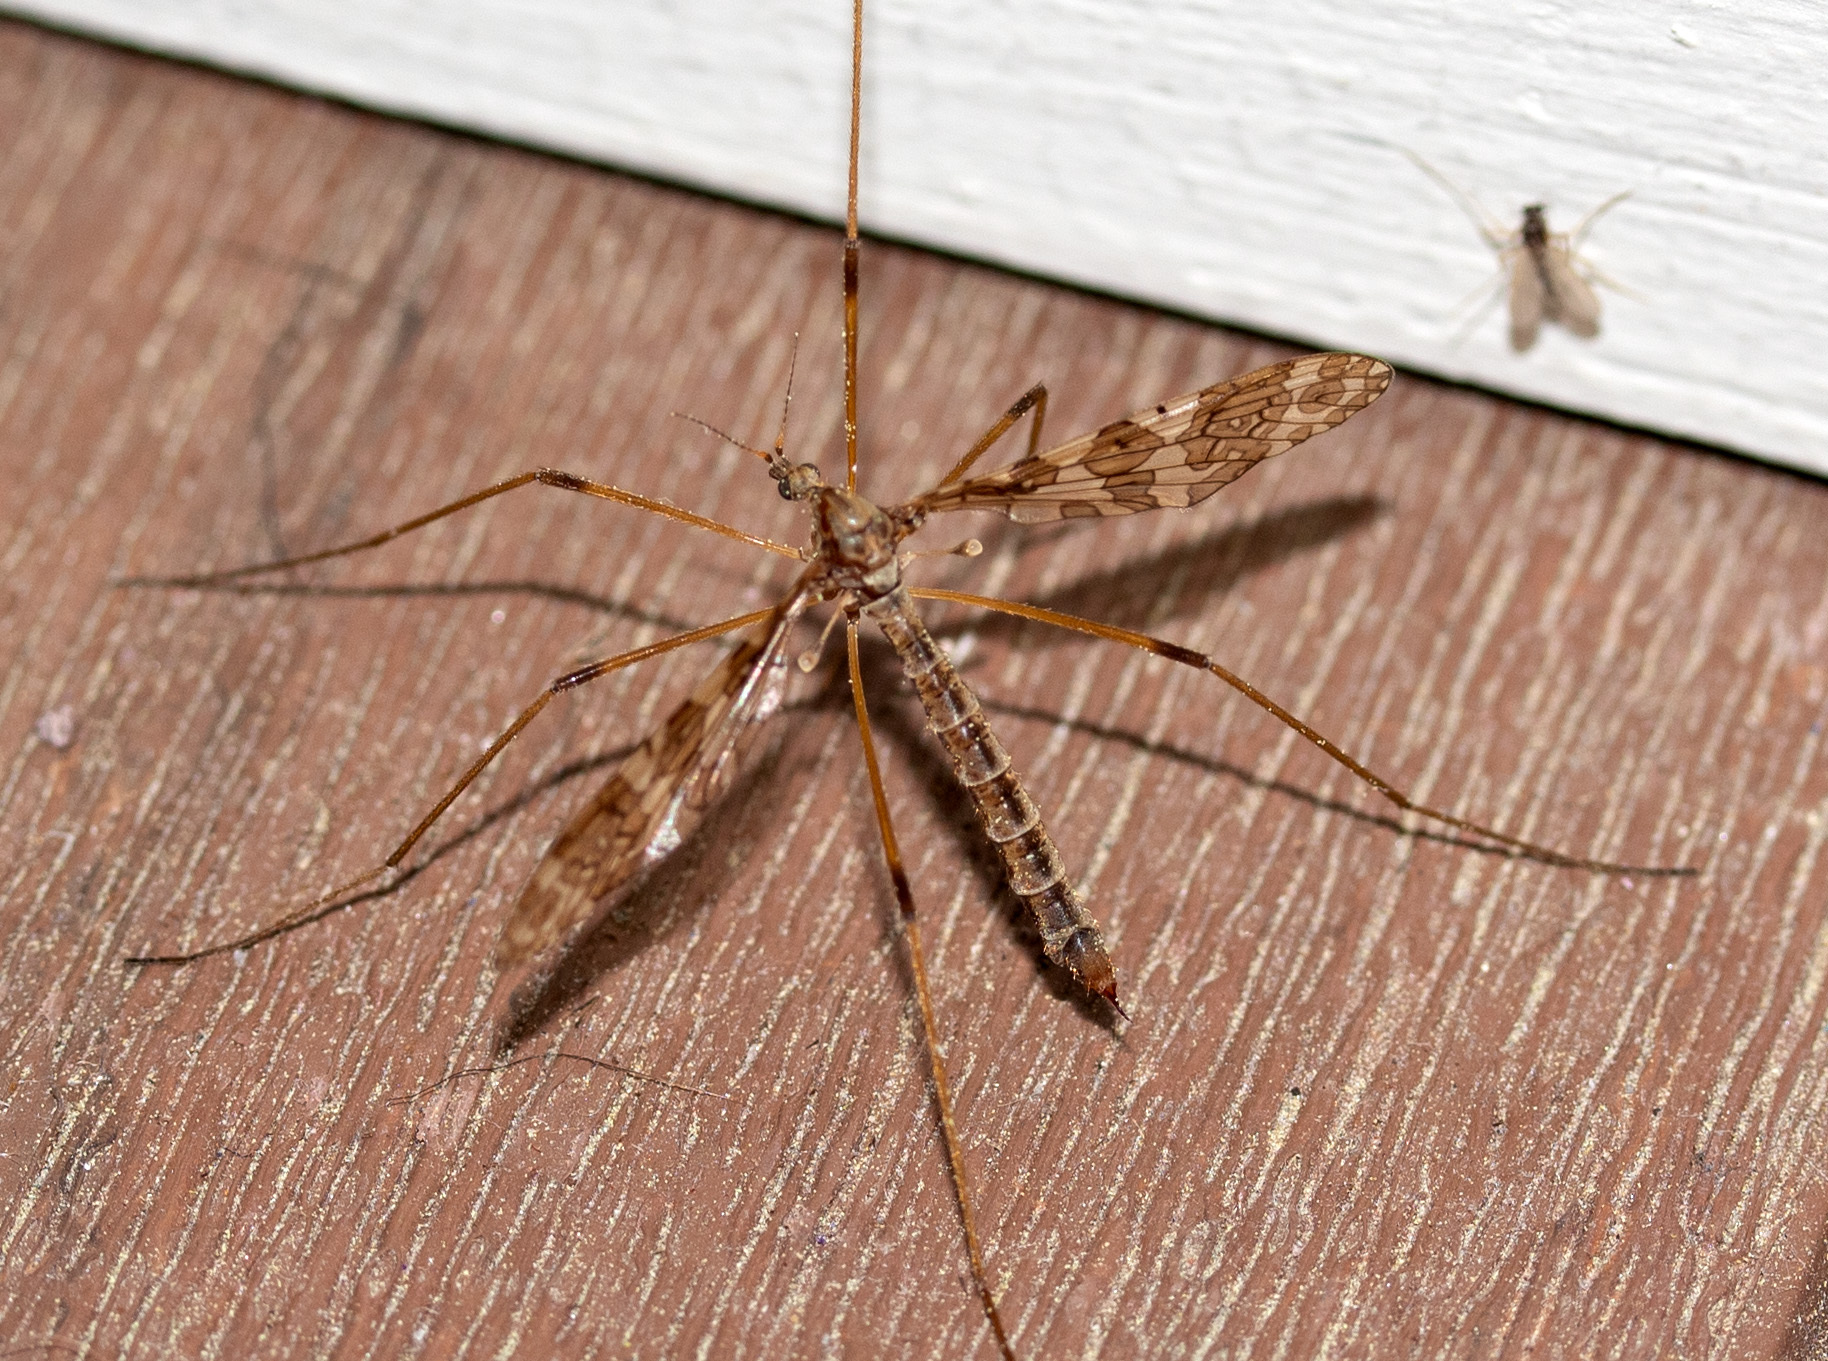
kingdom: Animalia
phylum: Arthropoda
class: Insecta
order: Diptera
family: Limoniidae
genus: Epiphragma
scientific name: Epiphragma fasciapenne
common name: Band-winged crane fly
